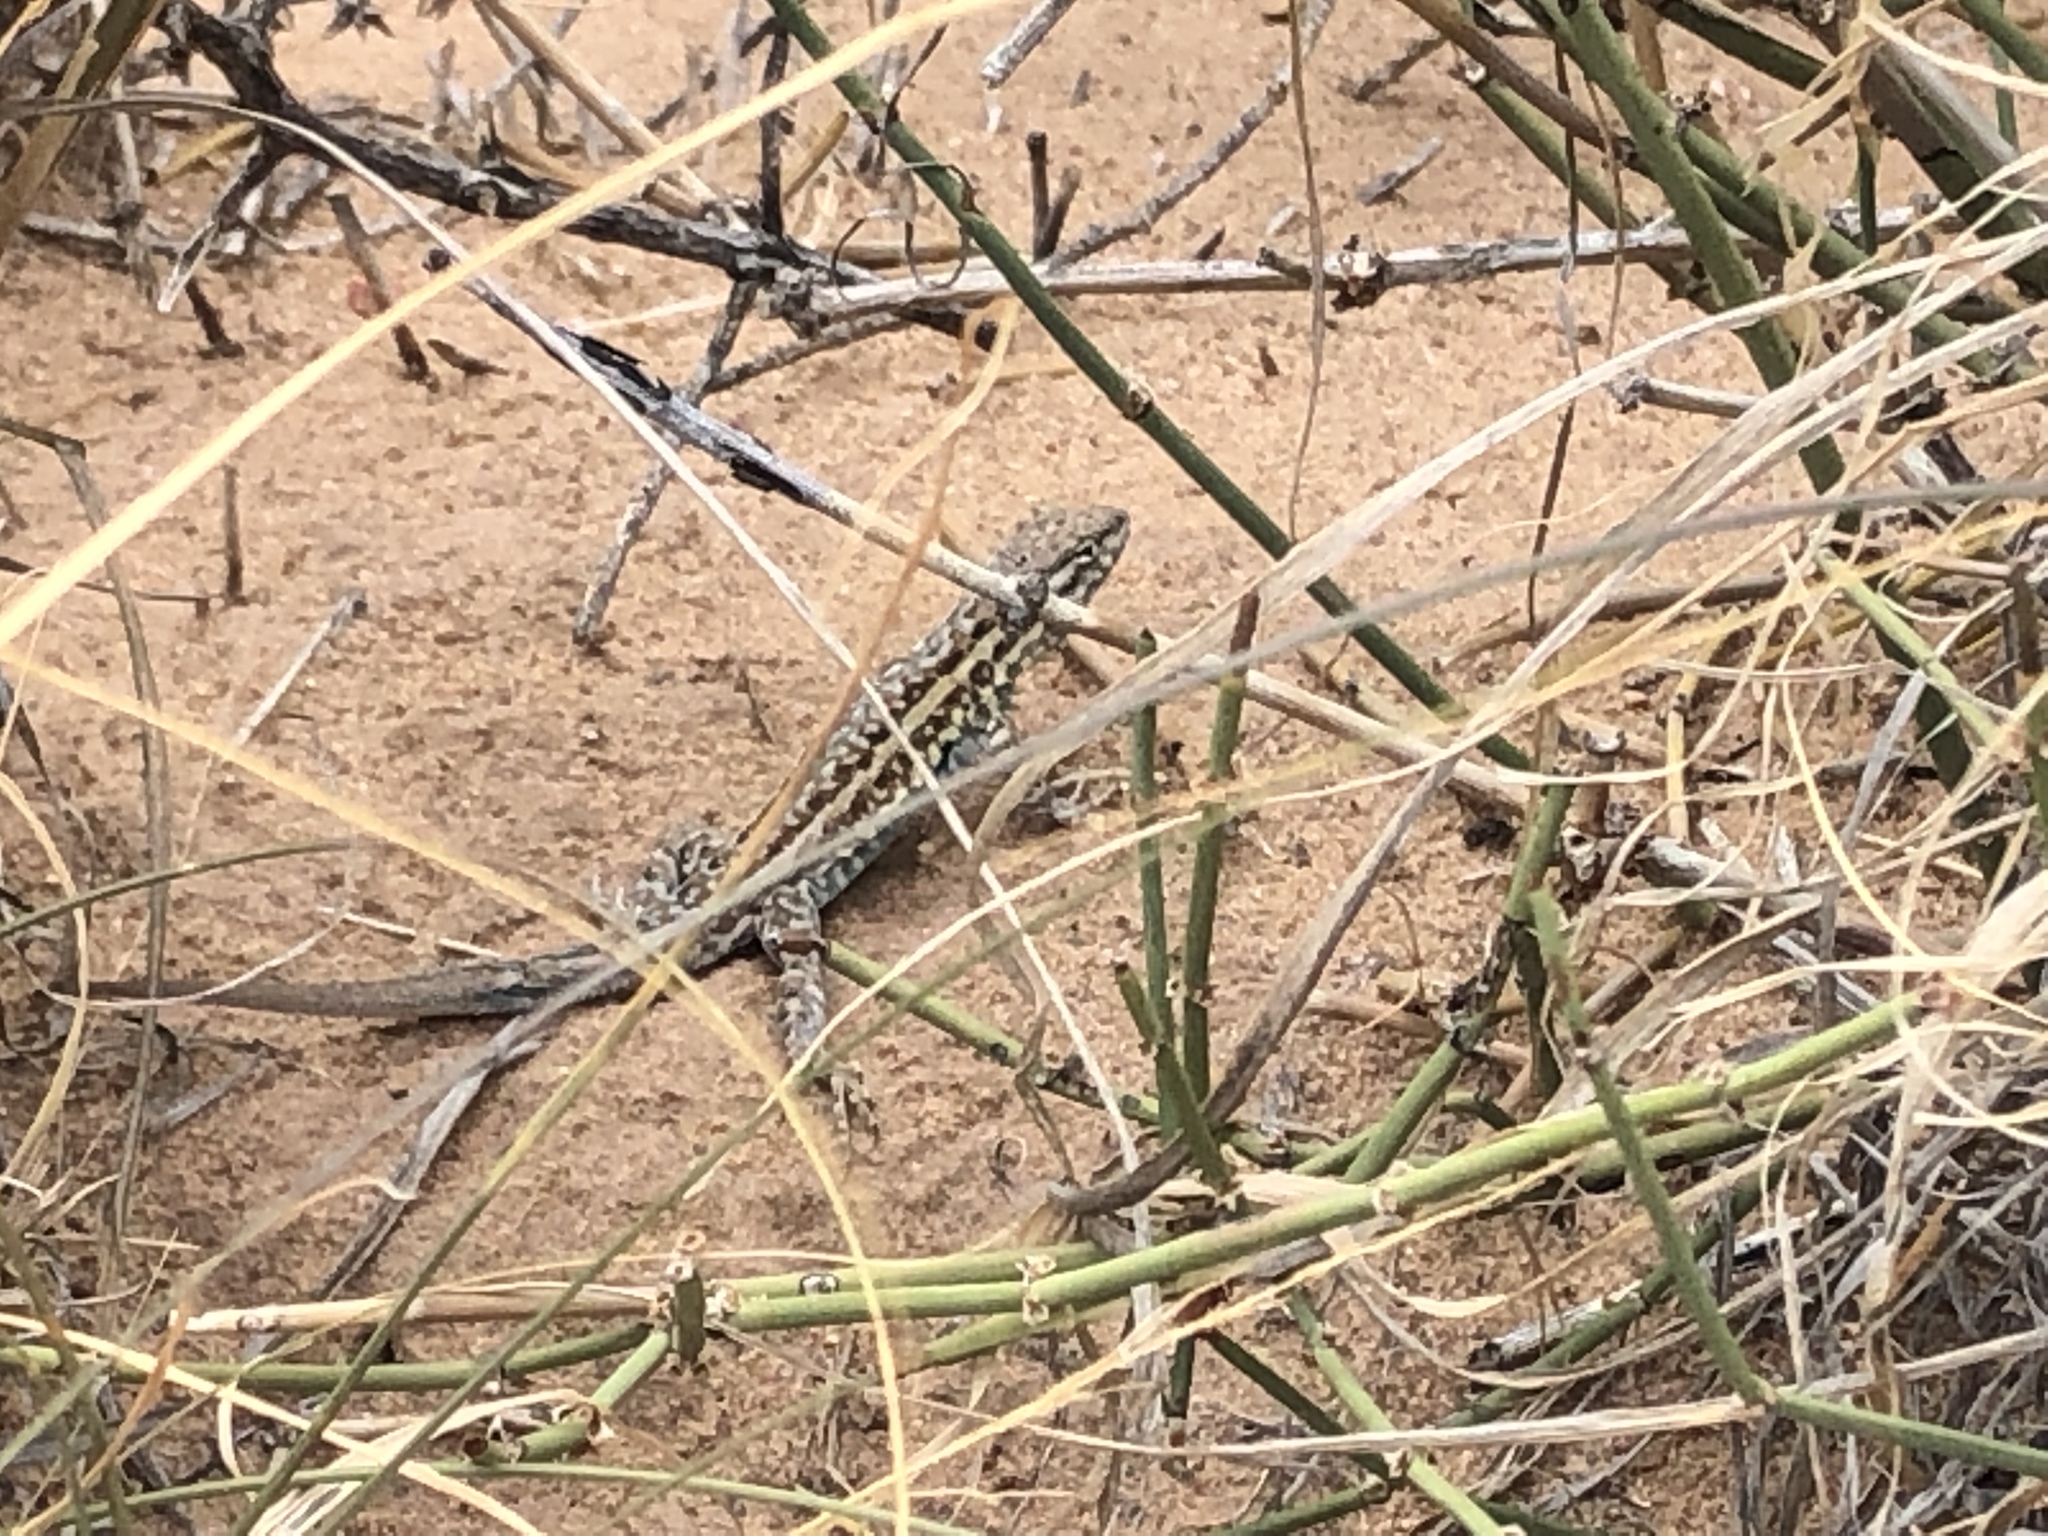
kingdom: Animalia
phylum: Chordata
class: Squamata
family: Phrynosomatidae
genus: Uta
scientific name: Uta stansburiana
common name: Side-blotched lizard
